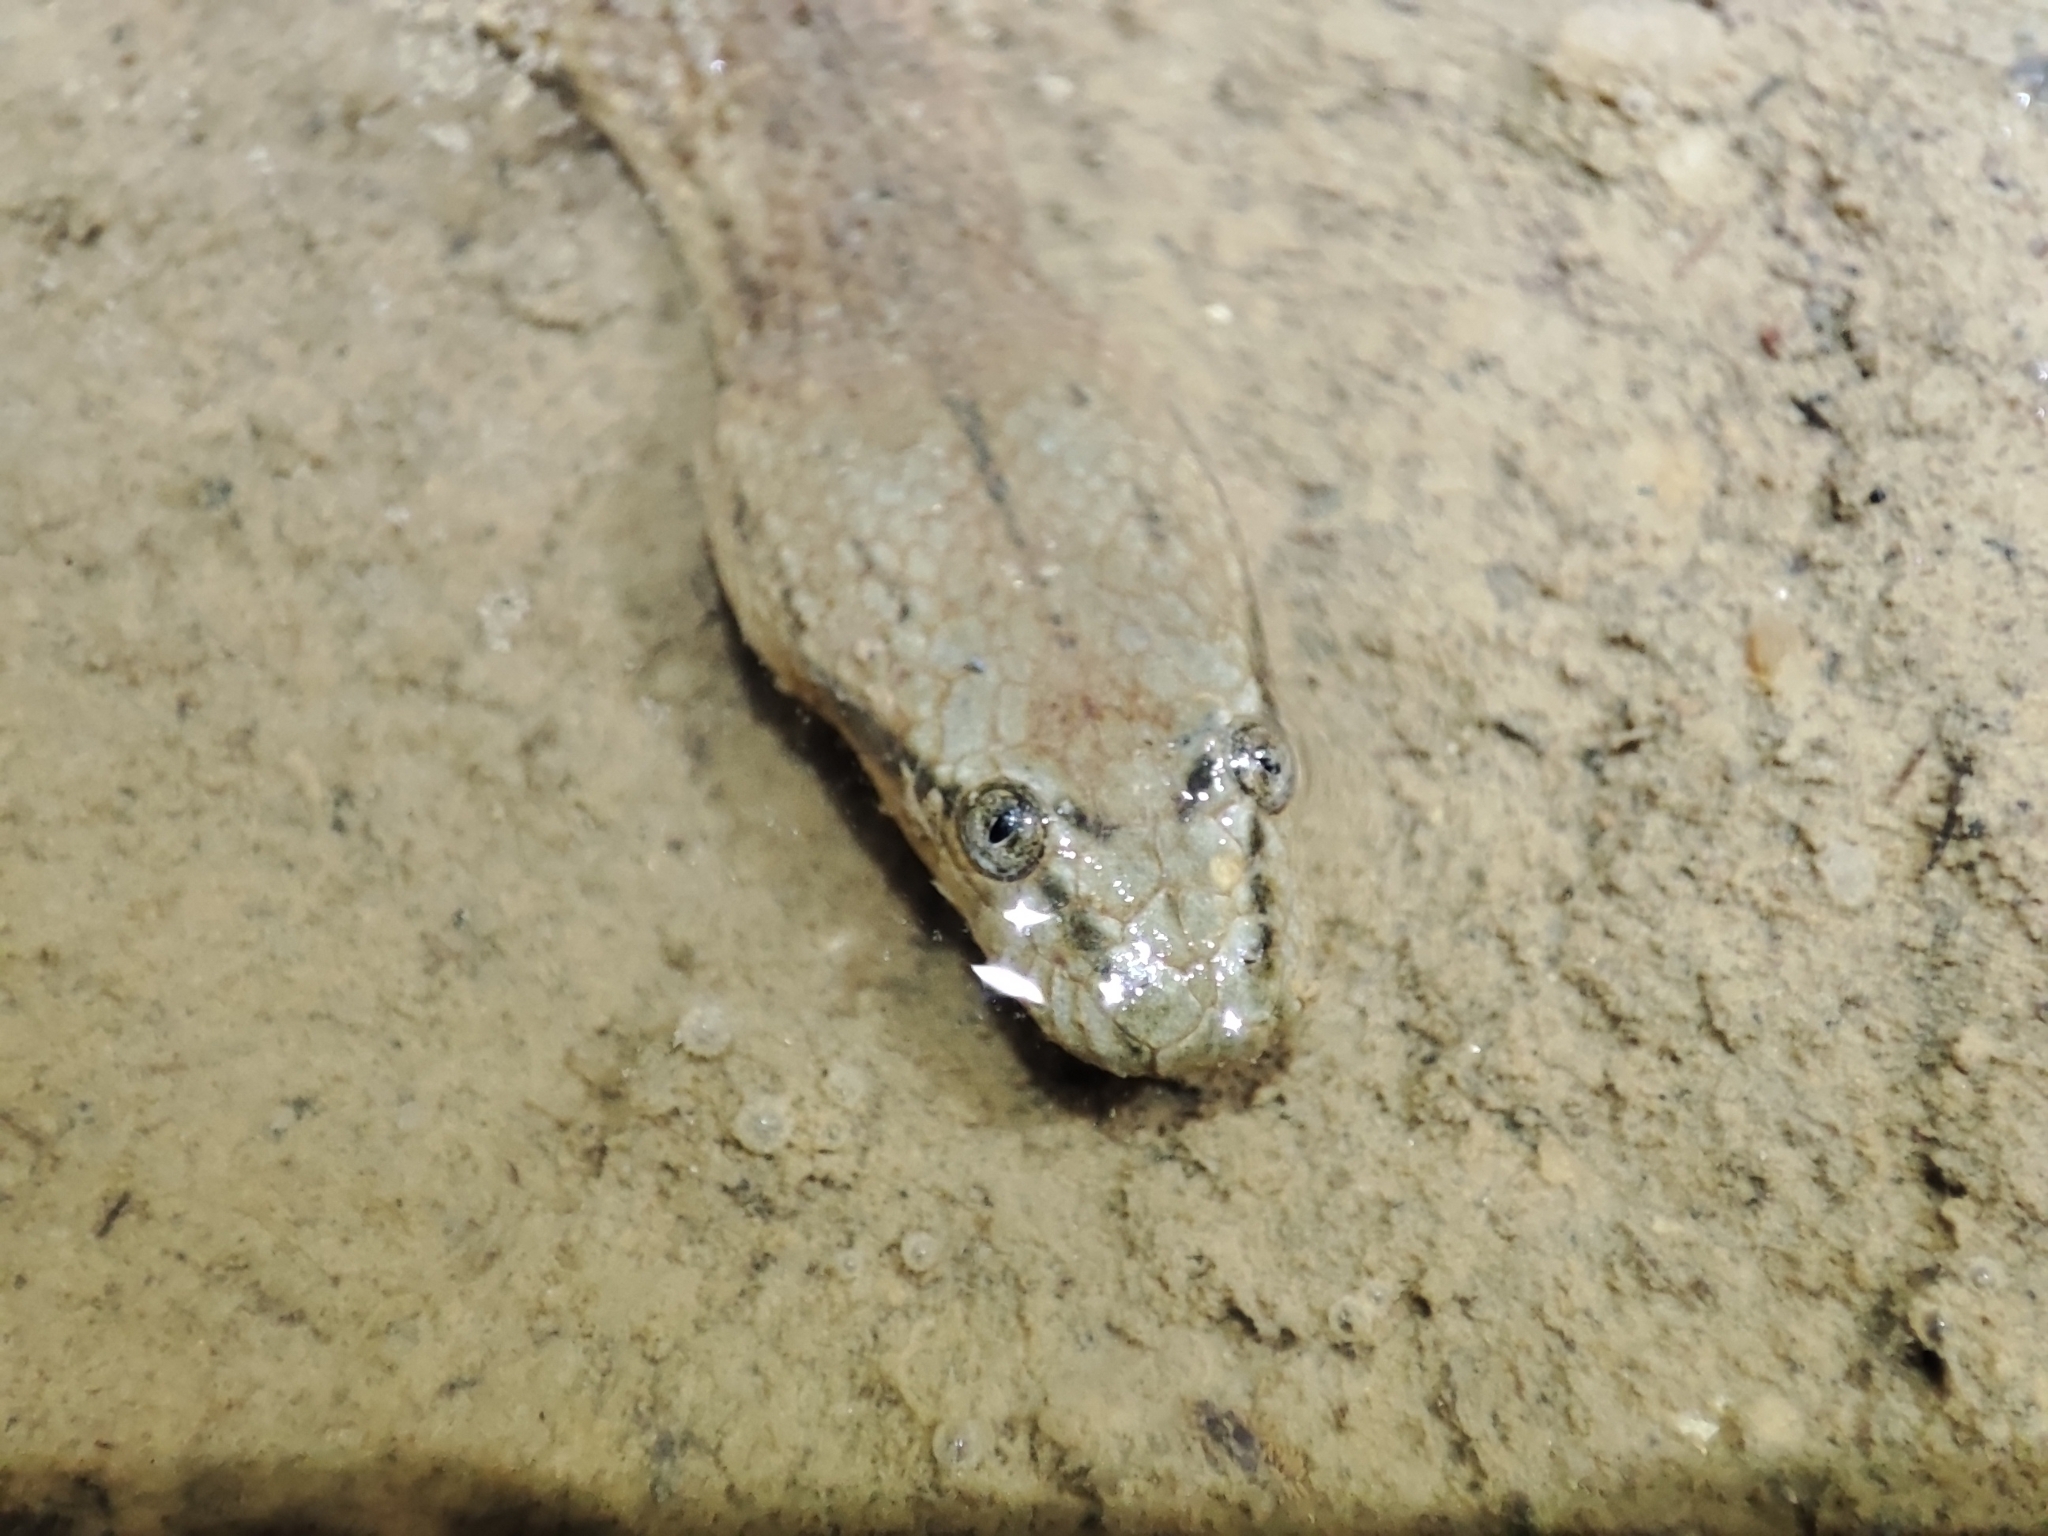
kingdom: Animalia
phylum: Chordata
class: Squamata
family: Homalopsidae
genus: Cerberus
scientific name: Cerberus schneiderii
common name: Southeast asian bockadam
